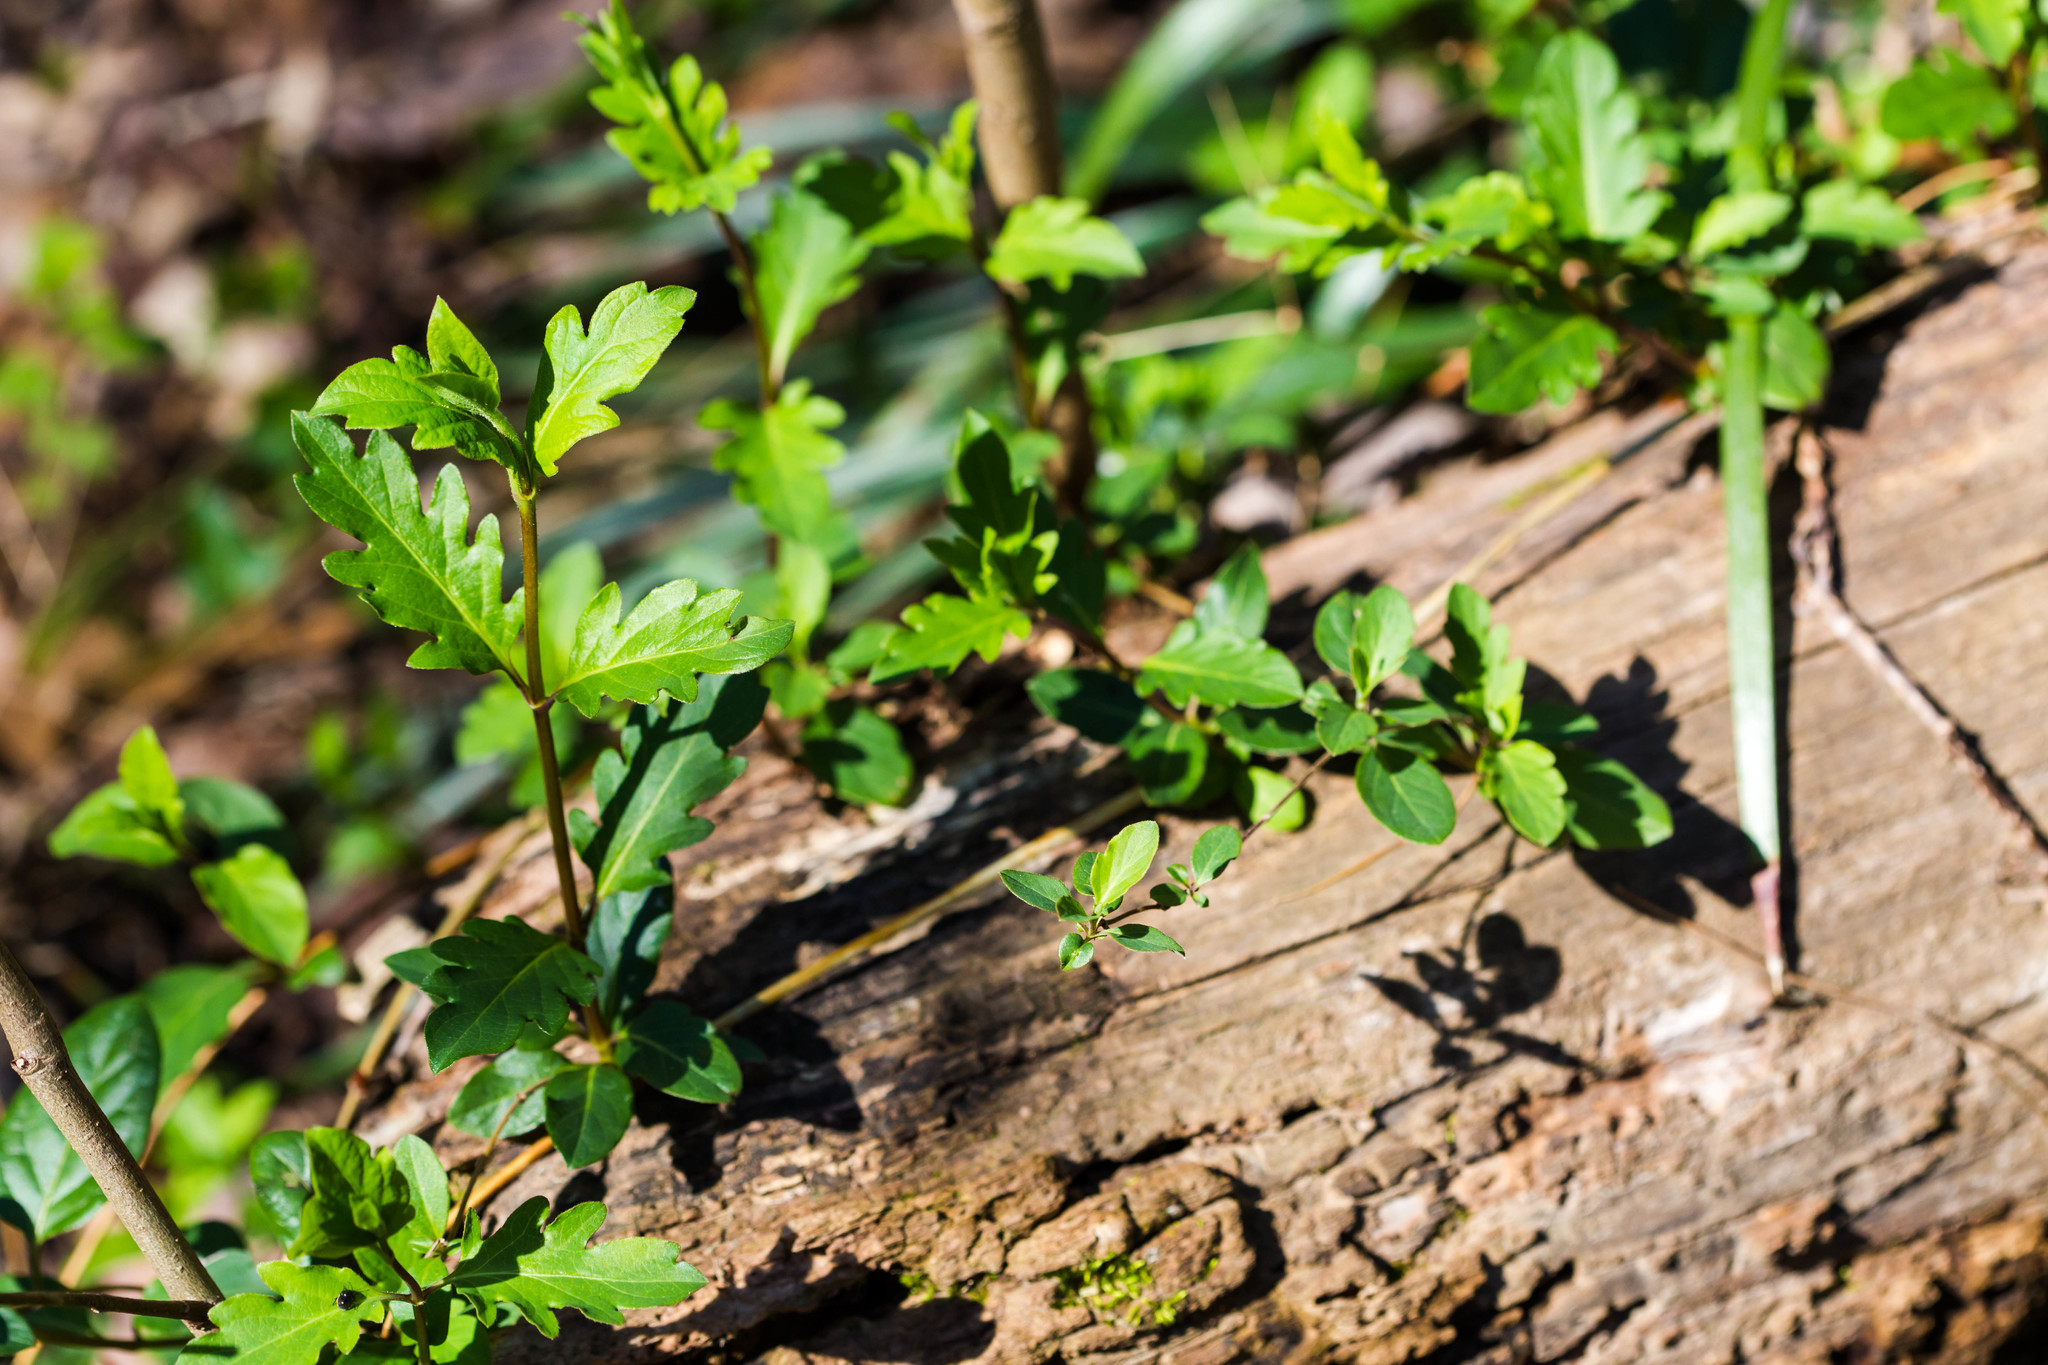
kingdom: Plantae
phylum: Tracheophyta
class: Magnoliopsida
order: Dipsacales
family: Caprifoliaceae
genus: Lonicera
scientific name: Lonicera japonica
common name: Japanese honeysuckle
